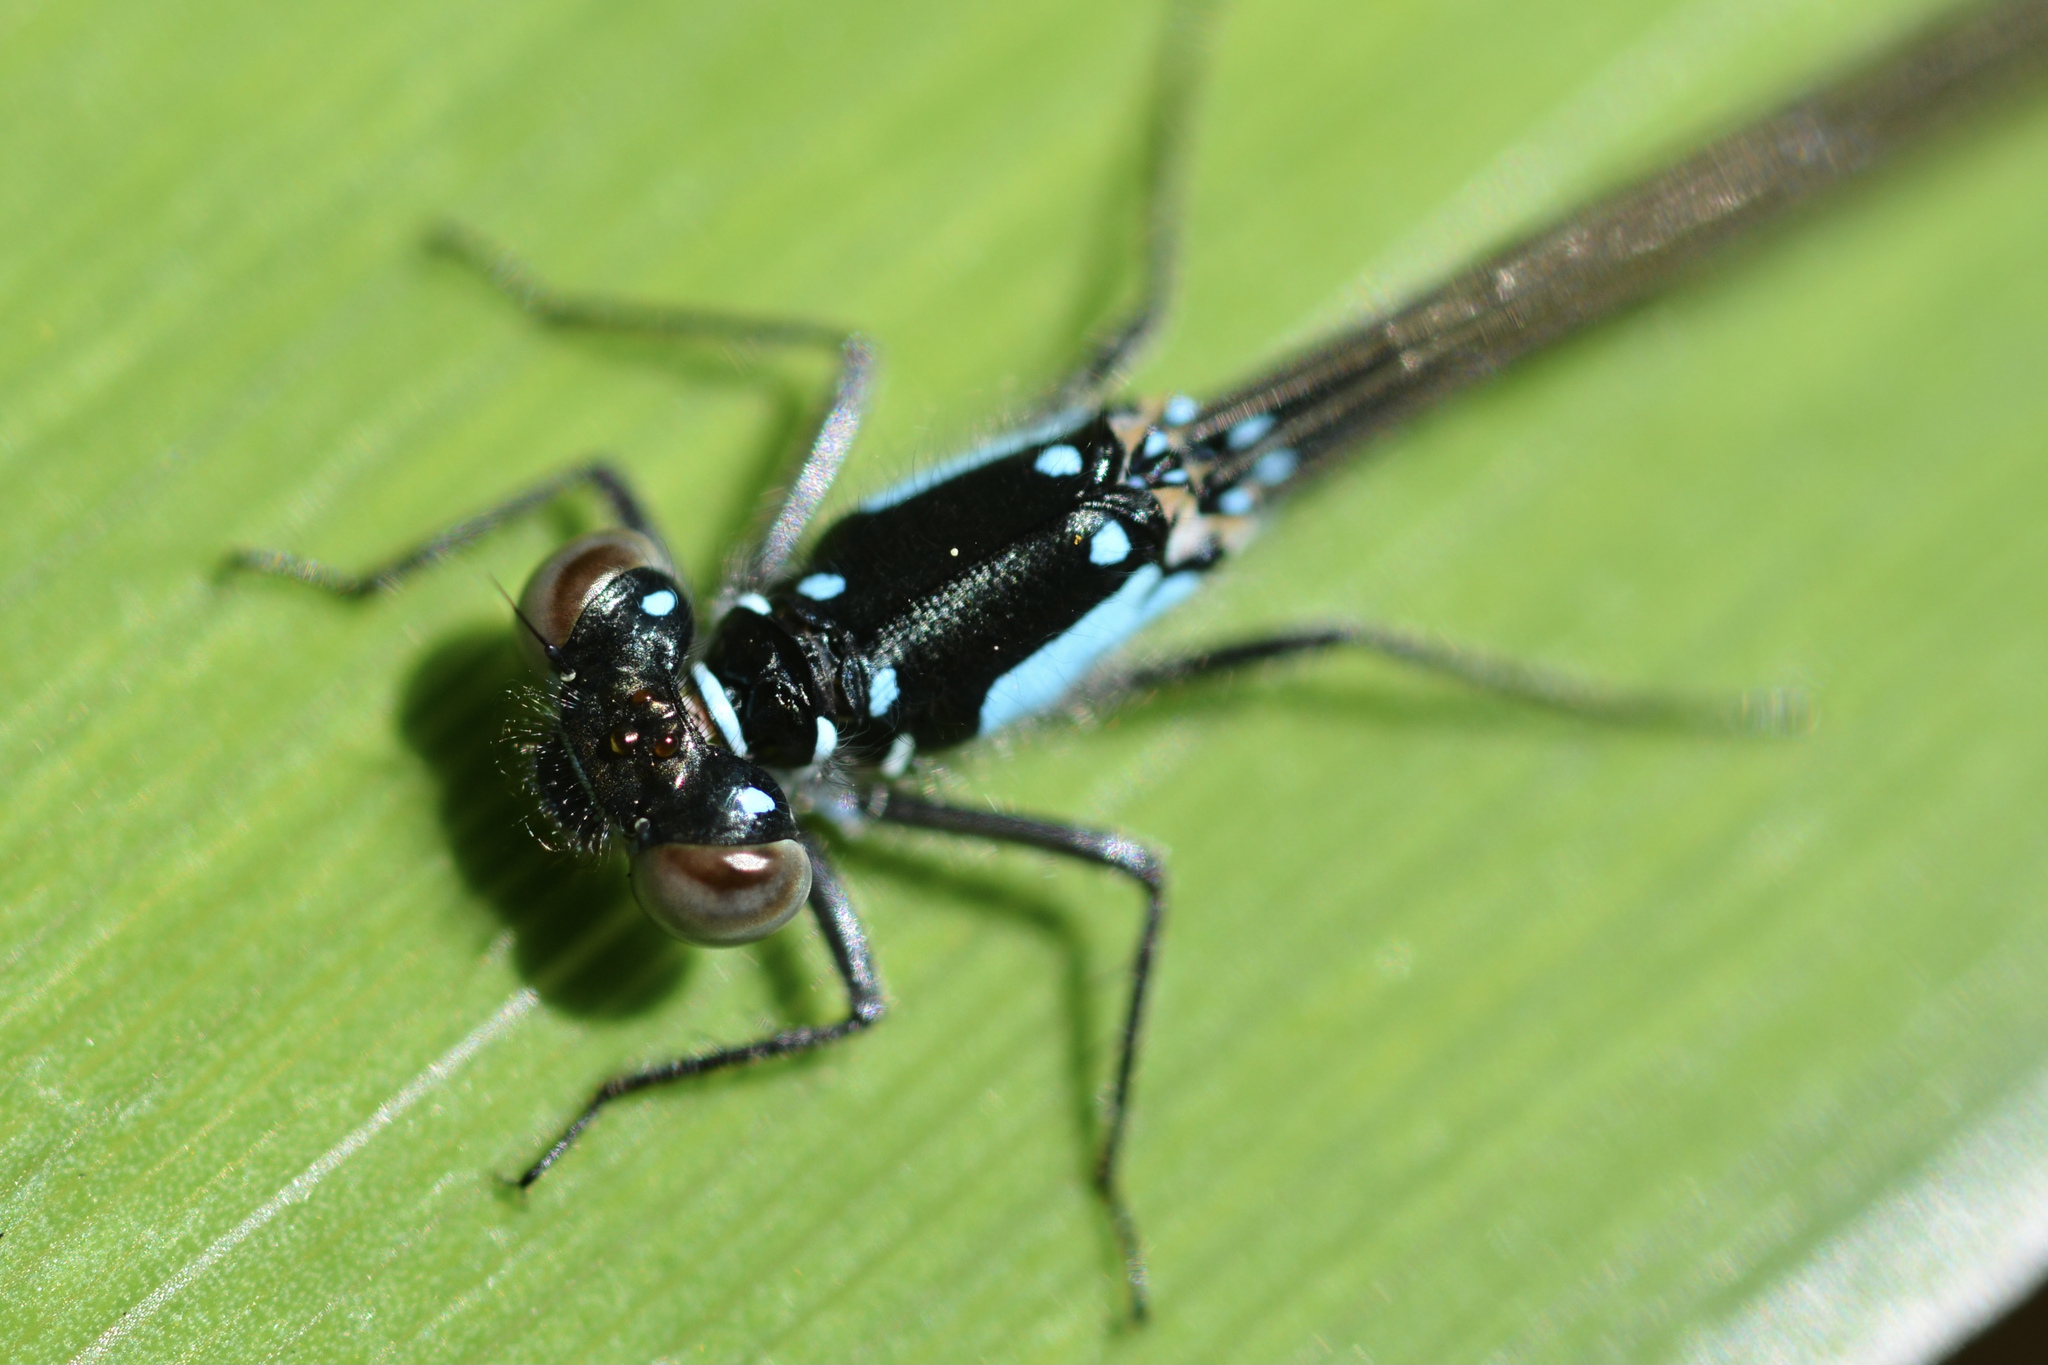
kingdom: Animalia
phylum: Arthropoda
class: Insecta
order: Odonata
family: Coenagrionidae
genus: Ischnura
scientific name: Ischnura cervula
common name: Pacific forktail
